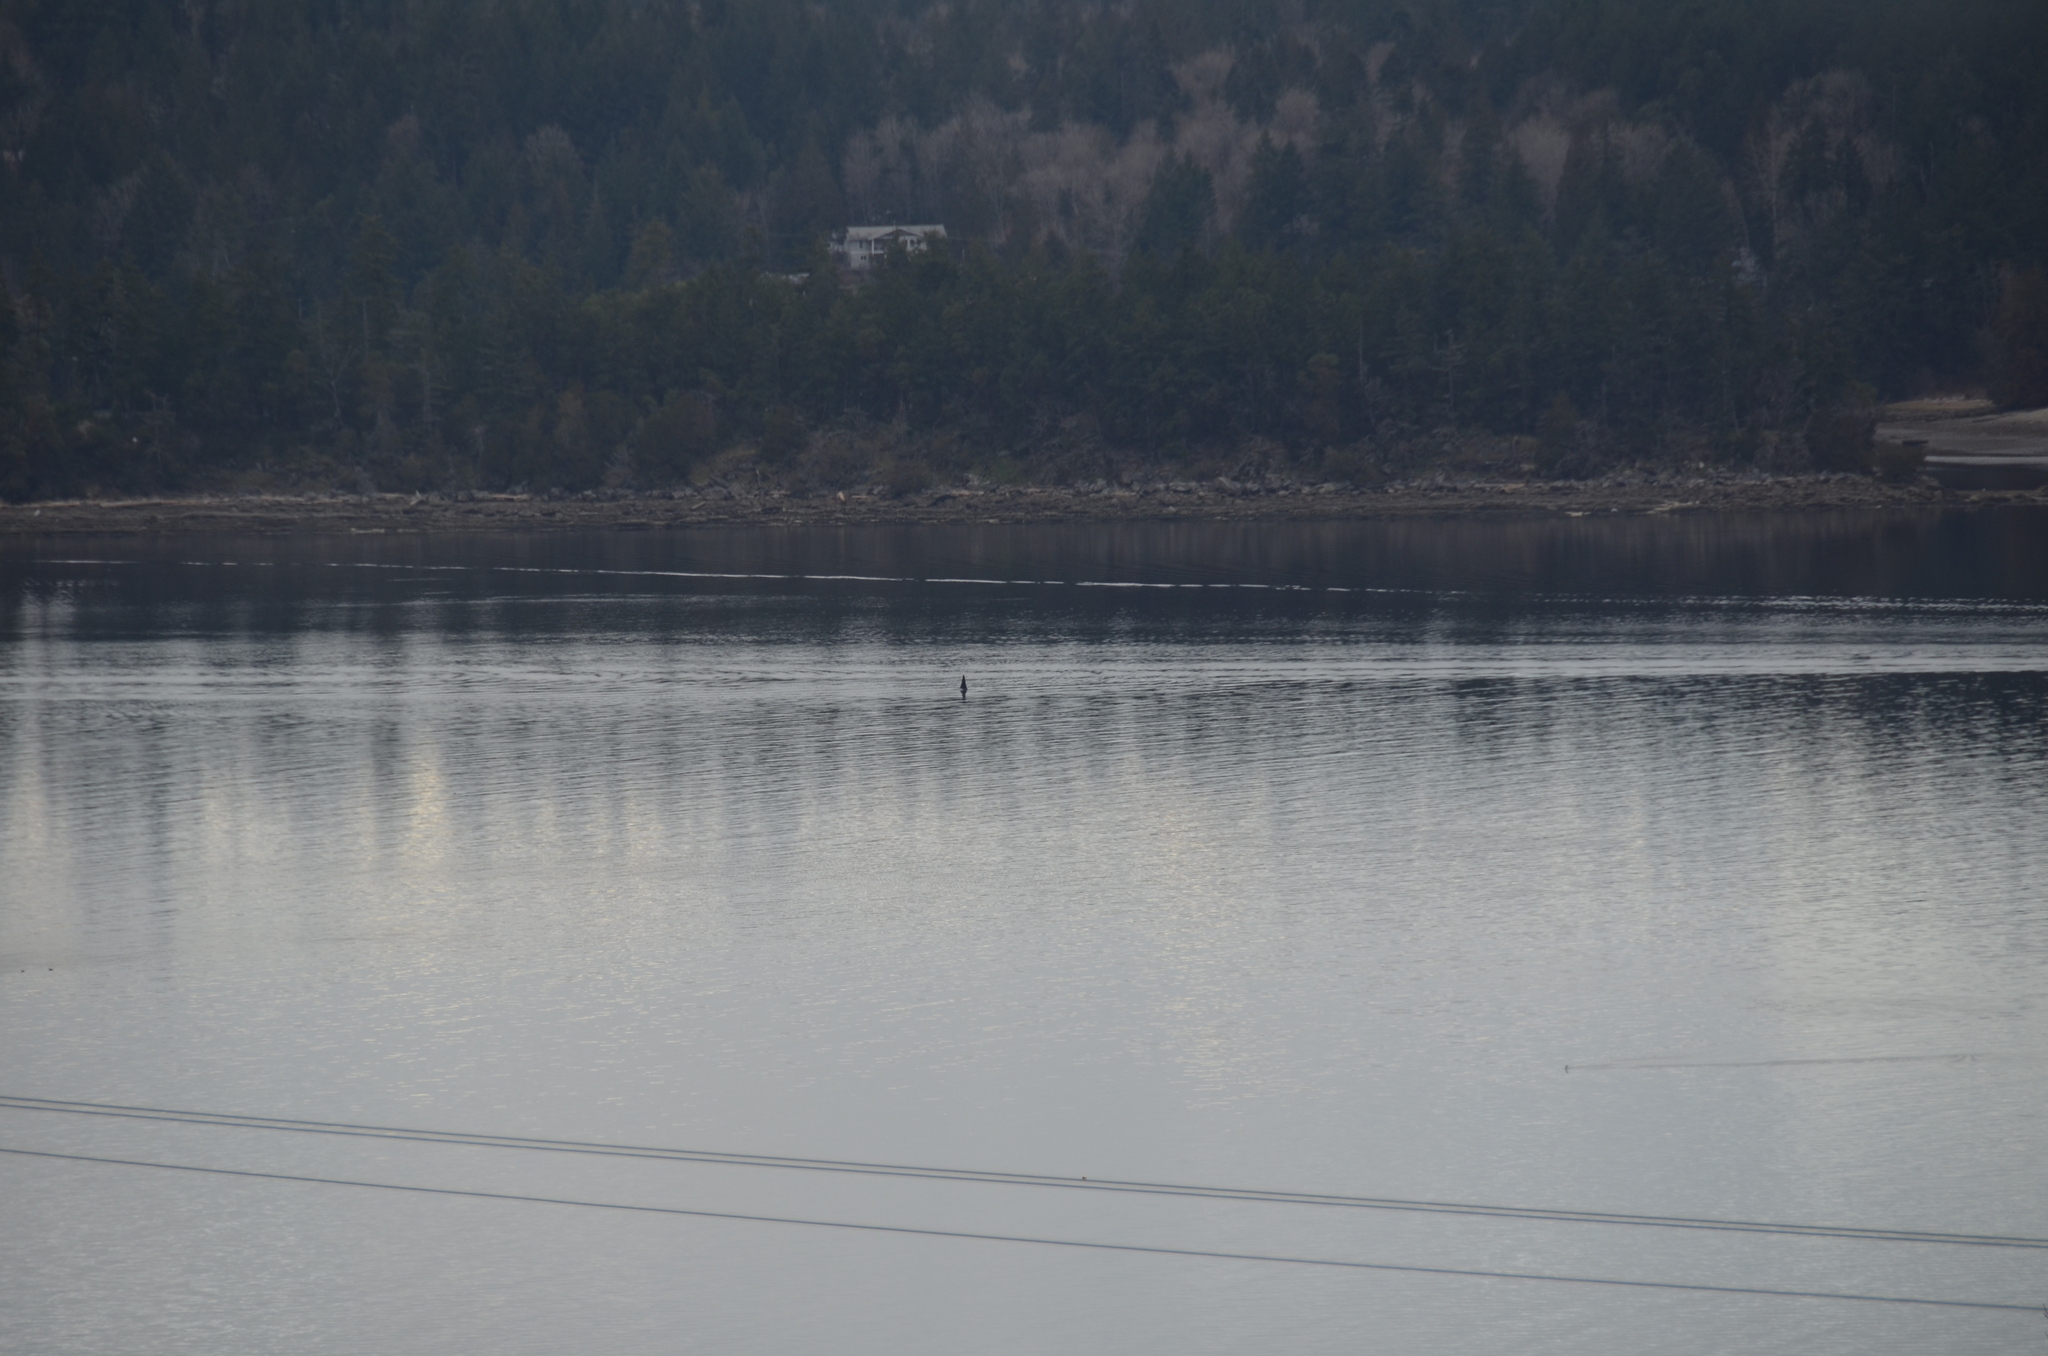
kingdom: Animalia
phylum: Chordata
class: Mammalia
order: Cetacea
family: Delphinidae
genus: Orcinus
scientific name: Orcinus orca
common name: Killer whale
